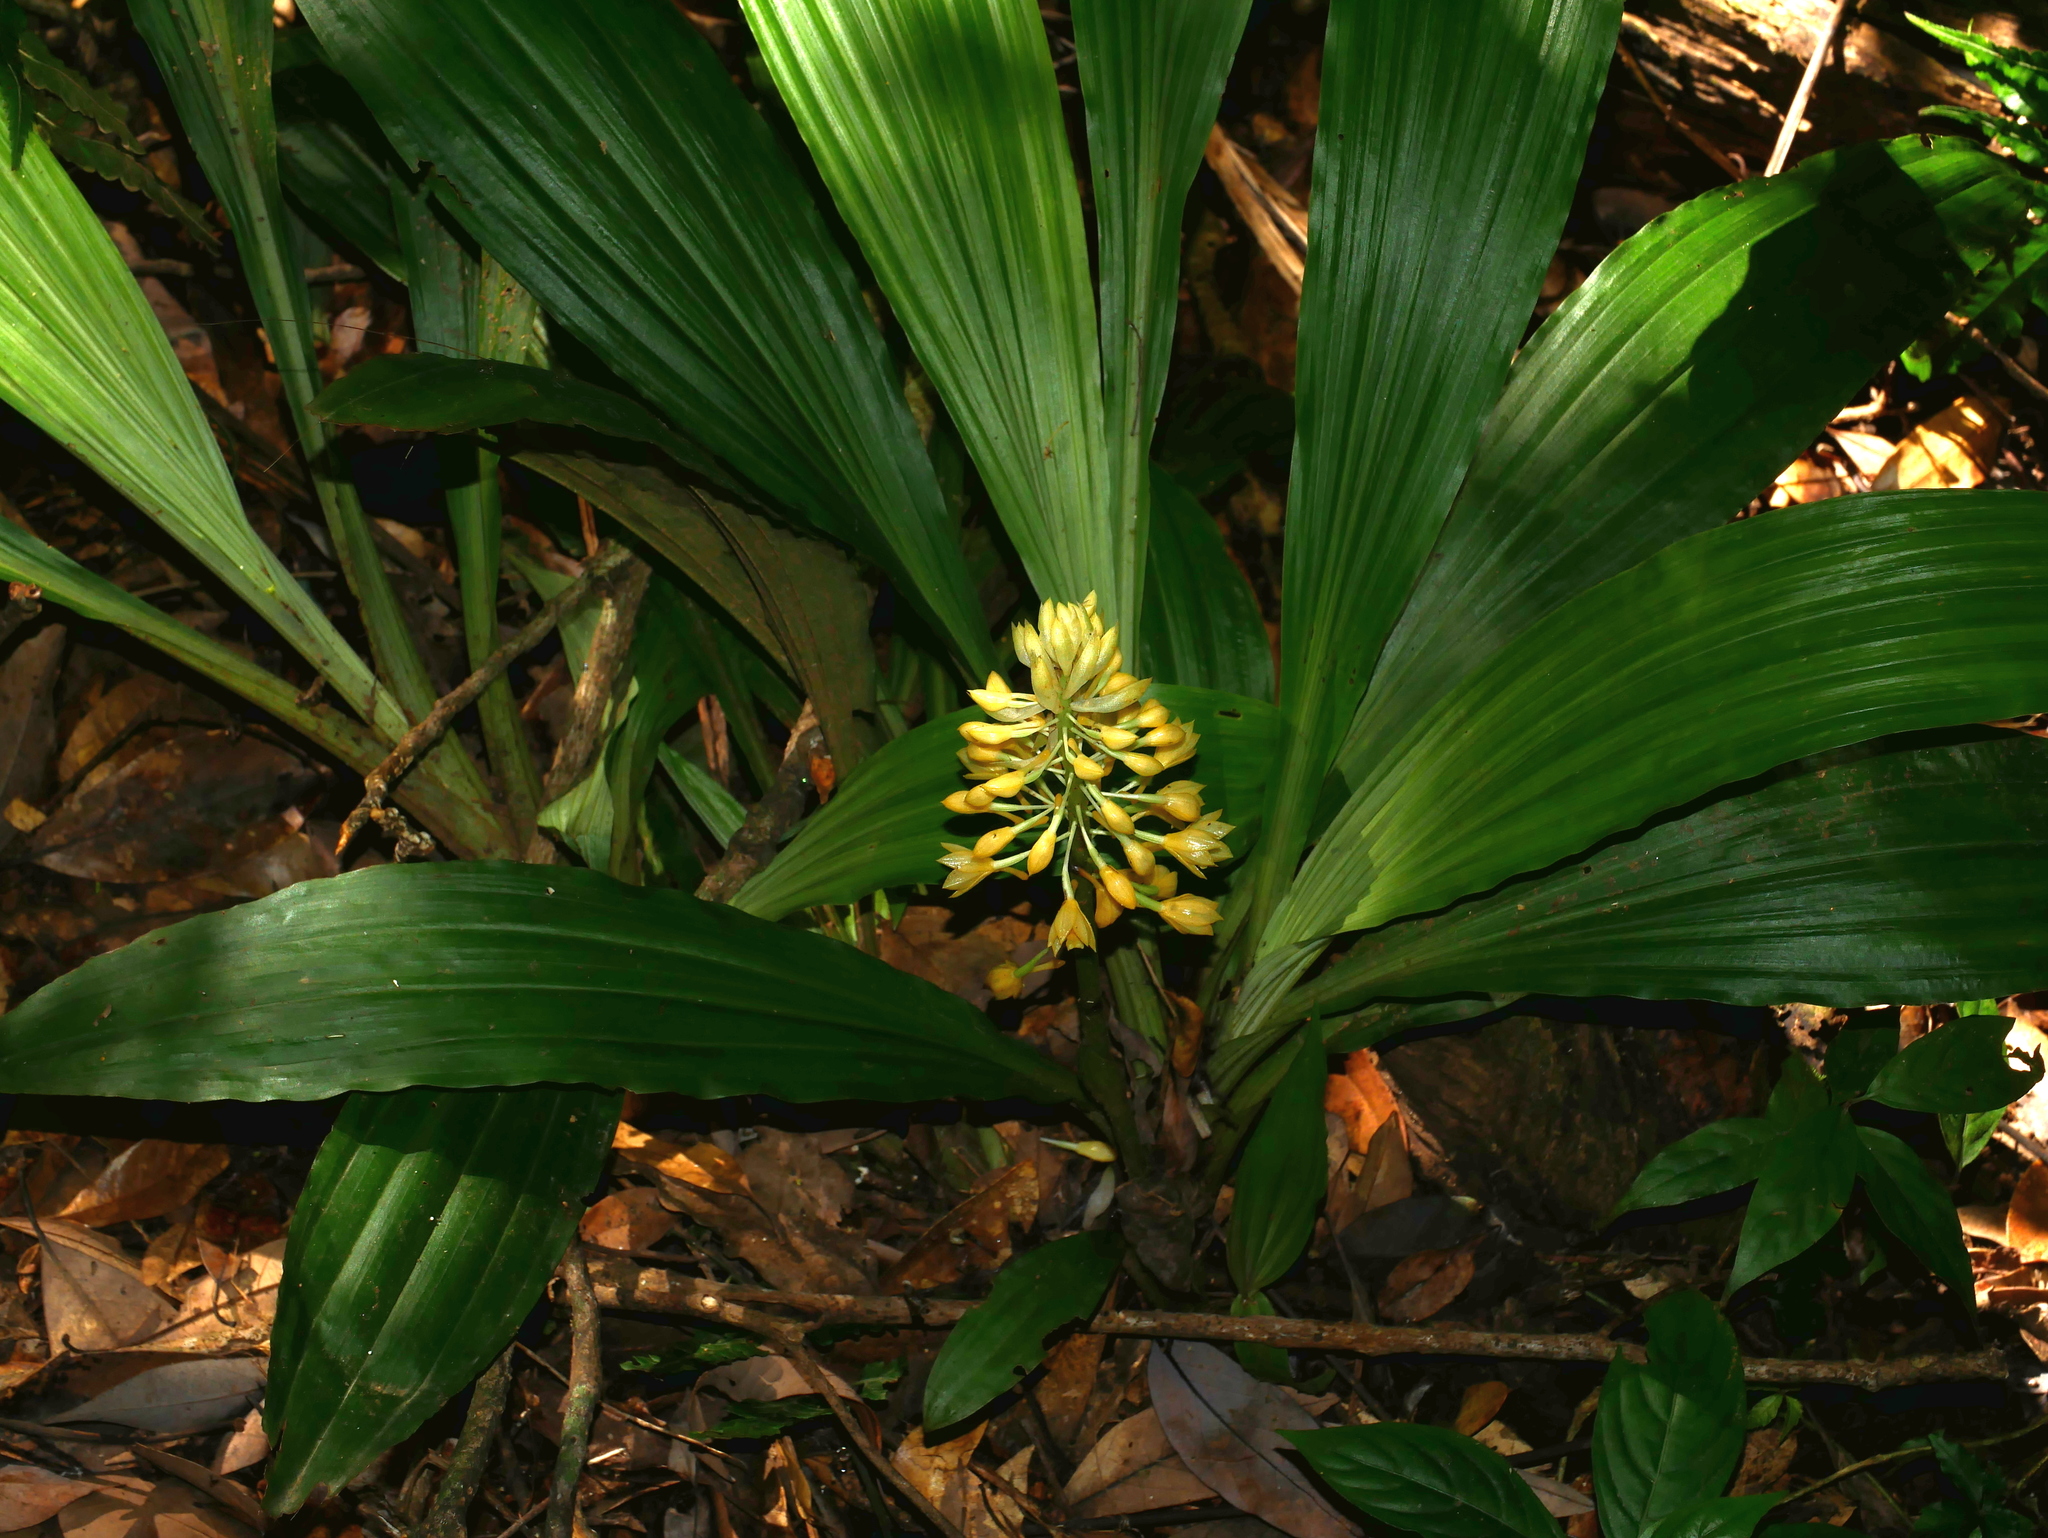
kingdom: Plantae
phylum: Tracheophyta
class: Liliopsida
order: Asparagales
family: Orchidaceae
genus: Calanthe
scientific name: Calanthe formosana
